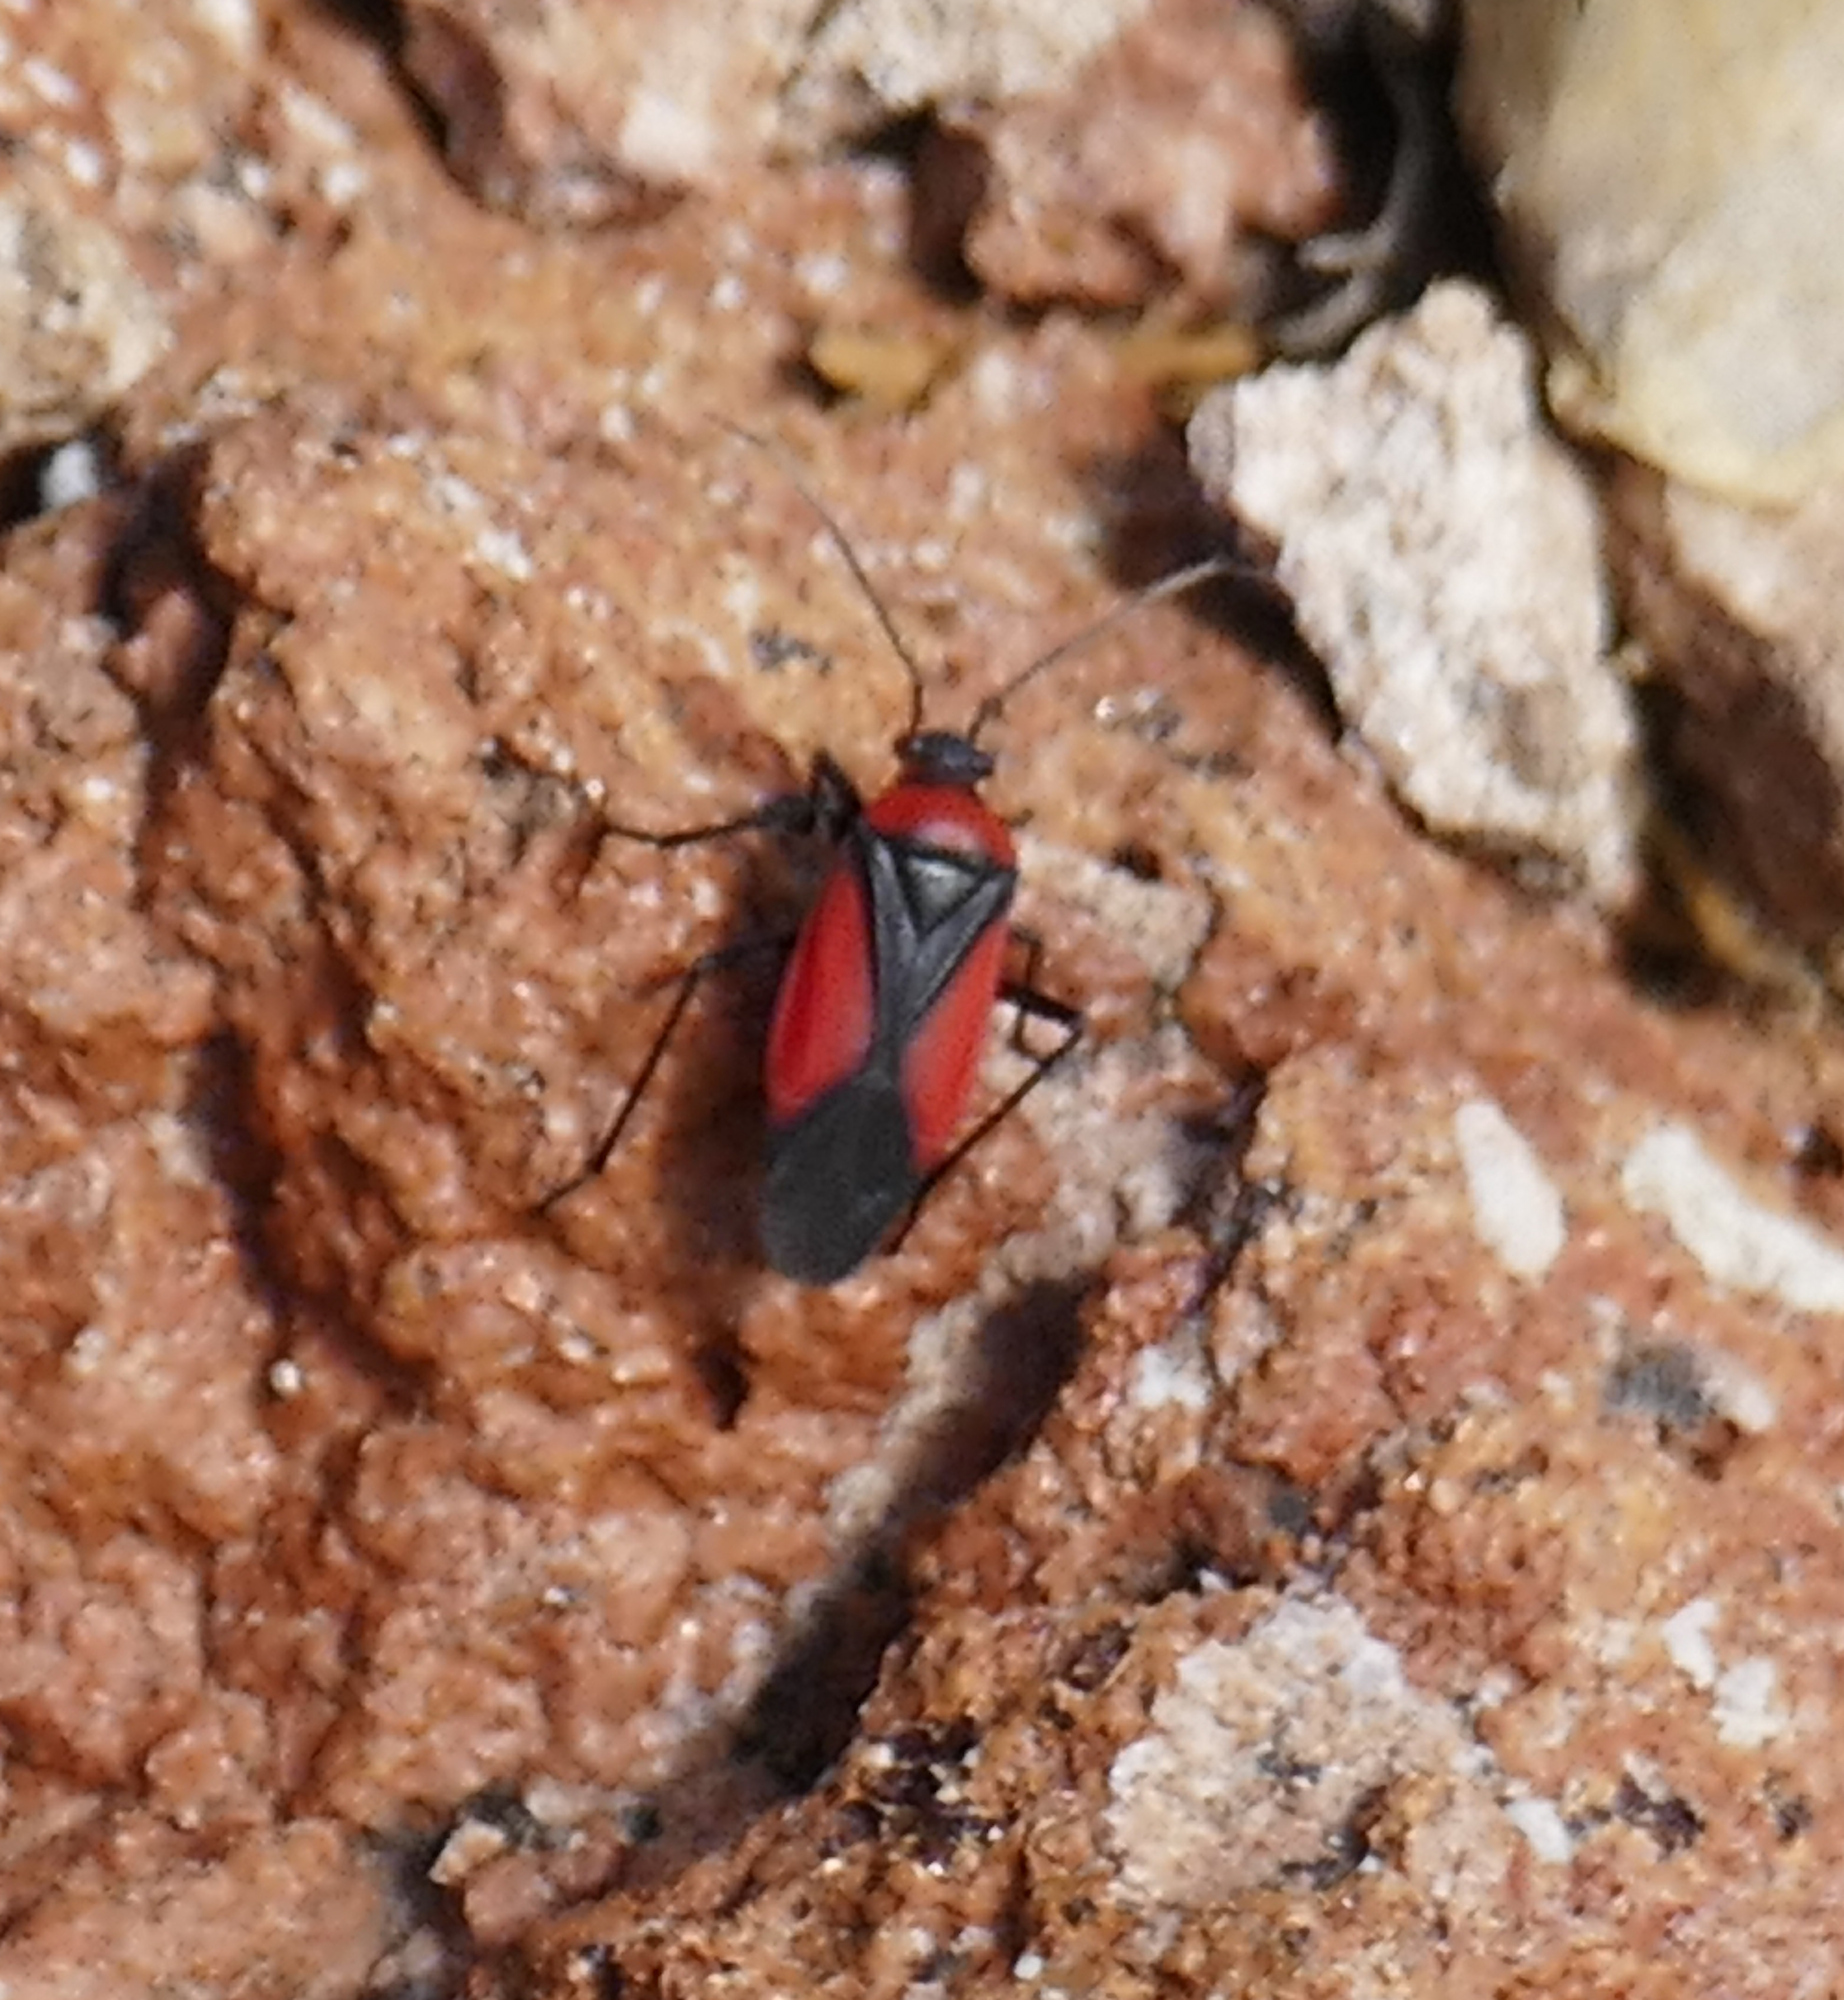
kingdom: Animalia
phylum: Arthropoda
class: Insecta
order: Hemiptera
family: Miridae
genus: Oncerometopus
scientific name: Oncerometopus atriscutis
